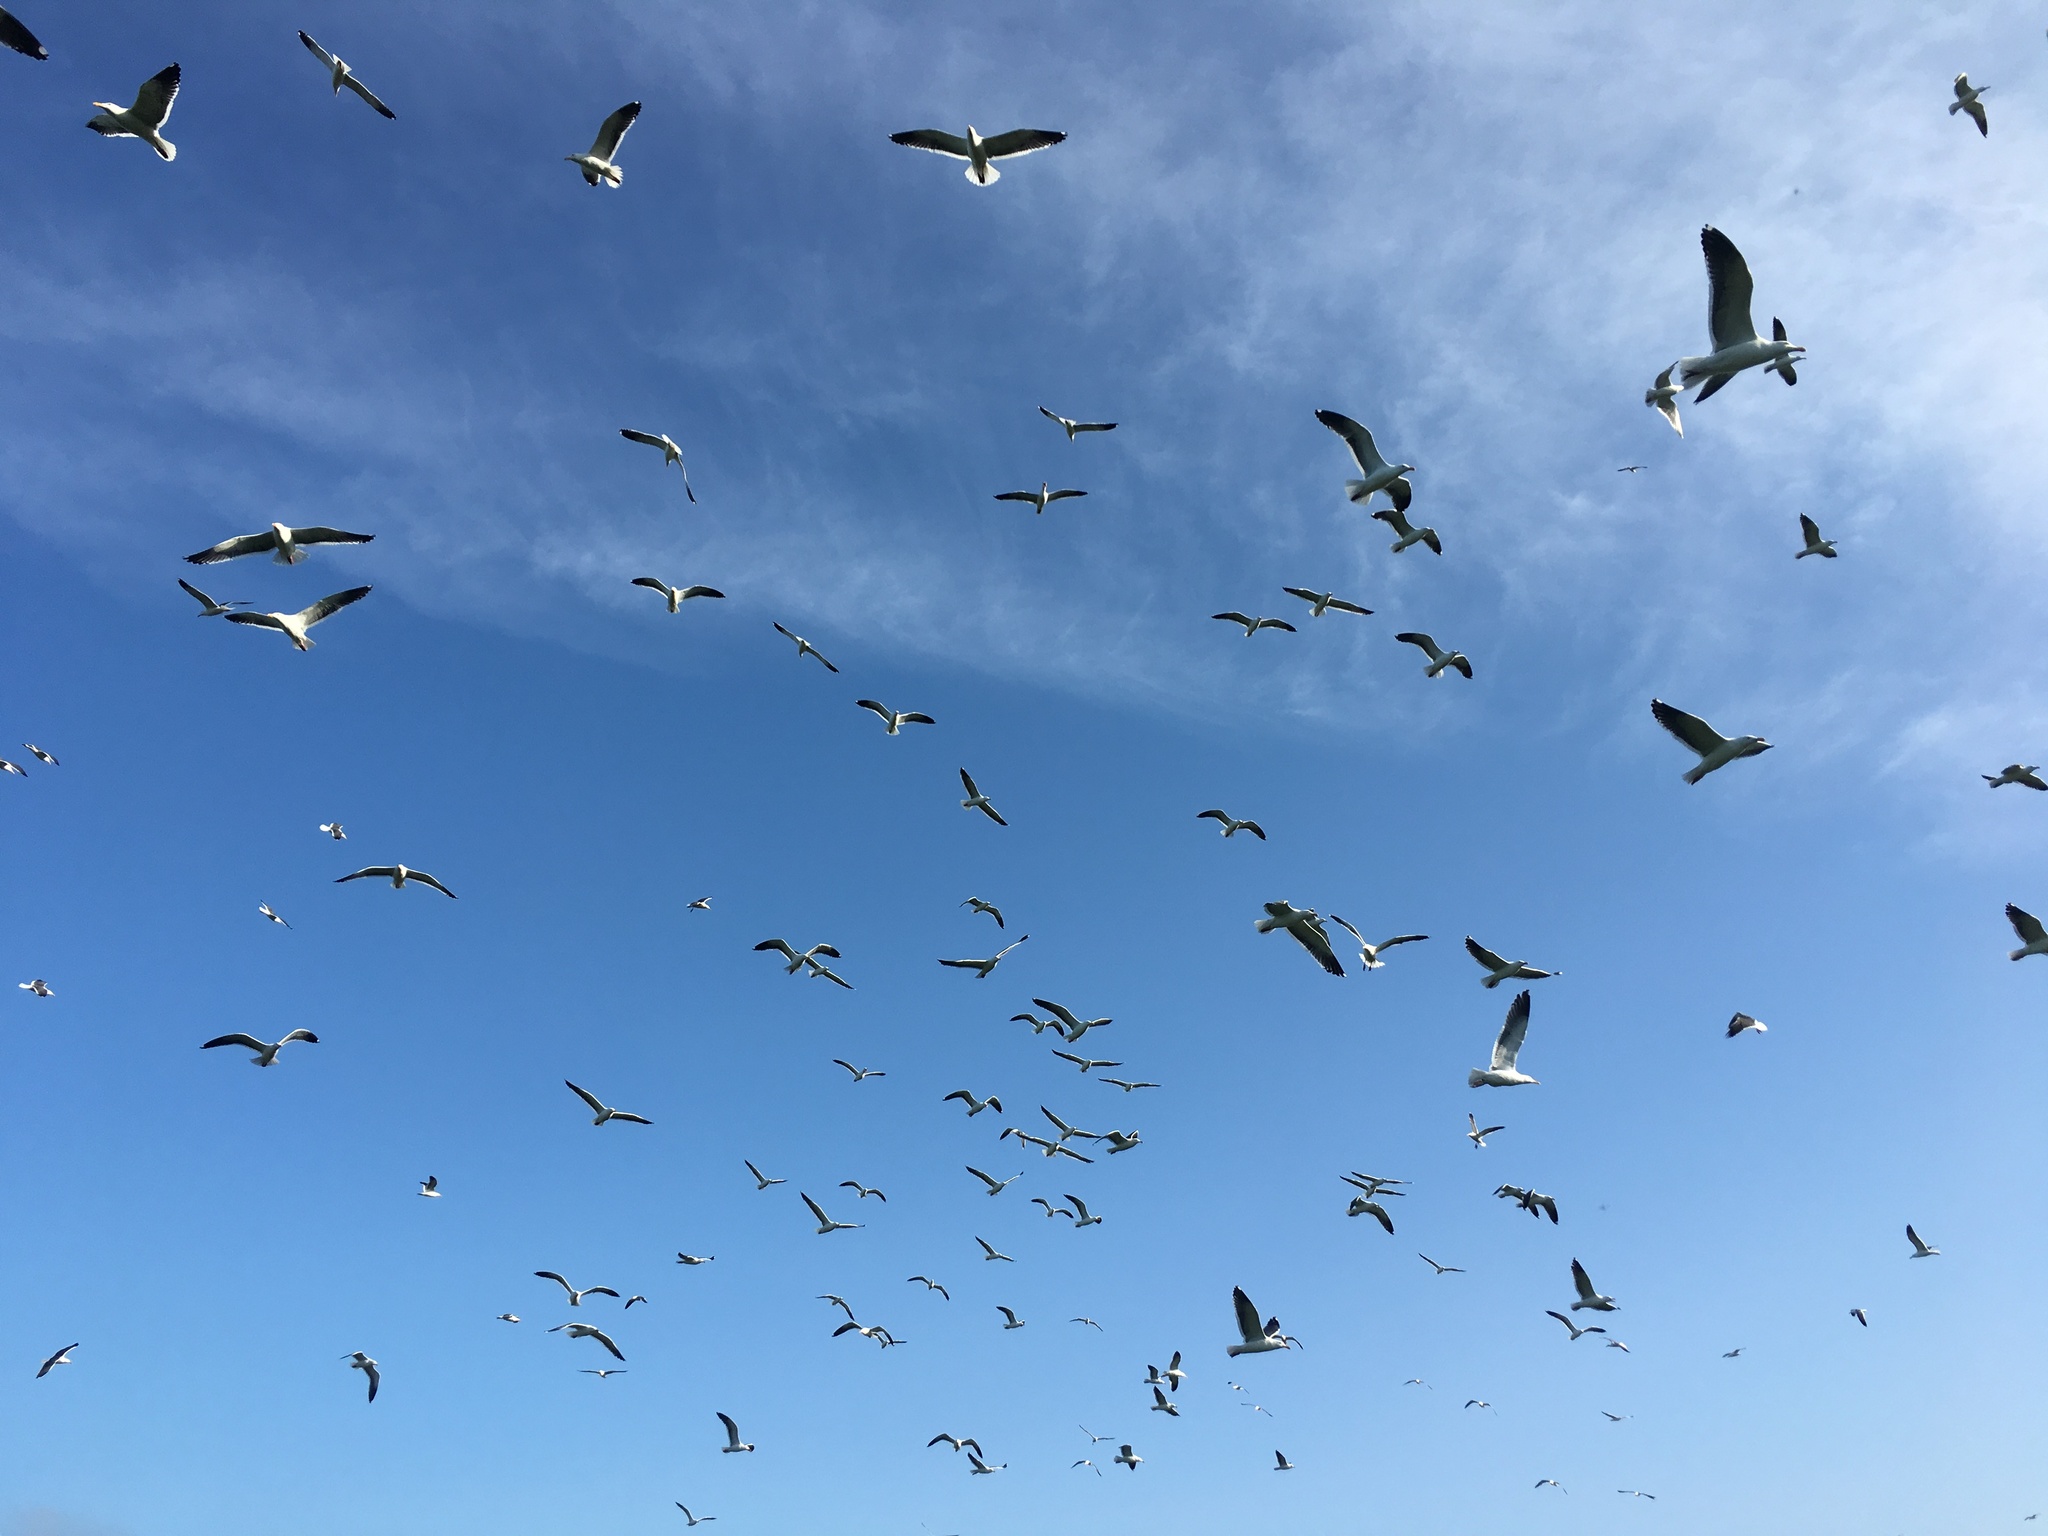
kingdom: Animalia
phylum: Chordata
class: Aves
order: Charadriiformes
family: Laridae
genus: Larus
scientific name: Larus occidentalis
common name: Western gull
